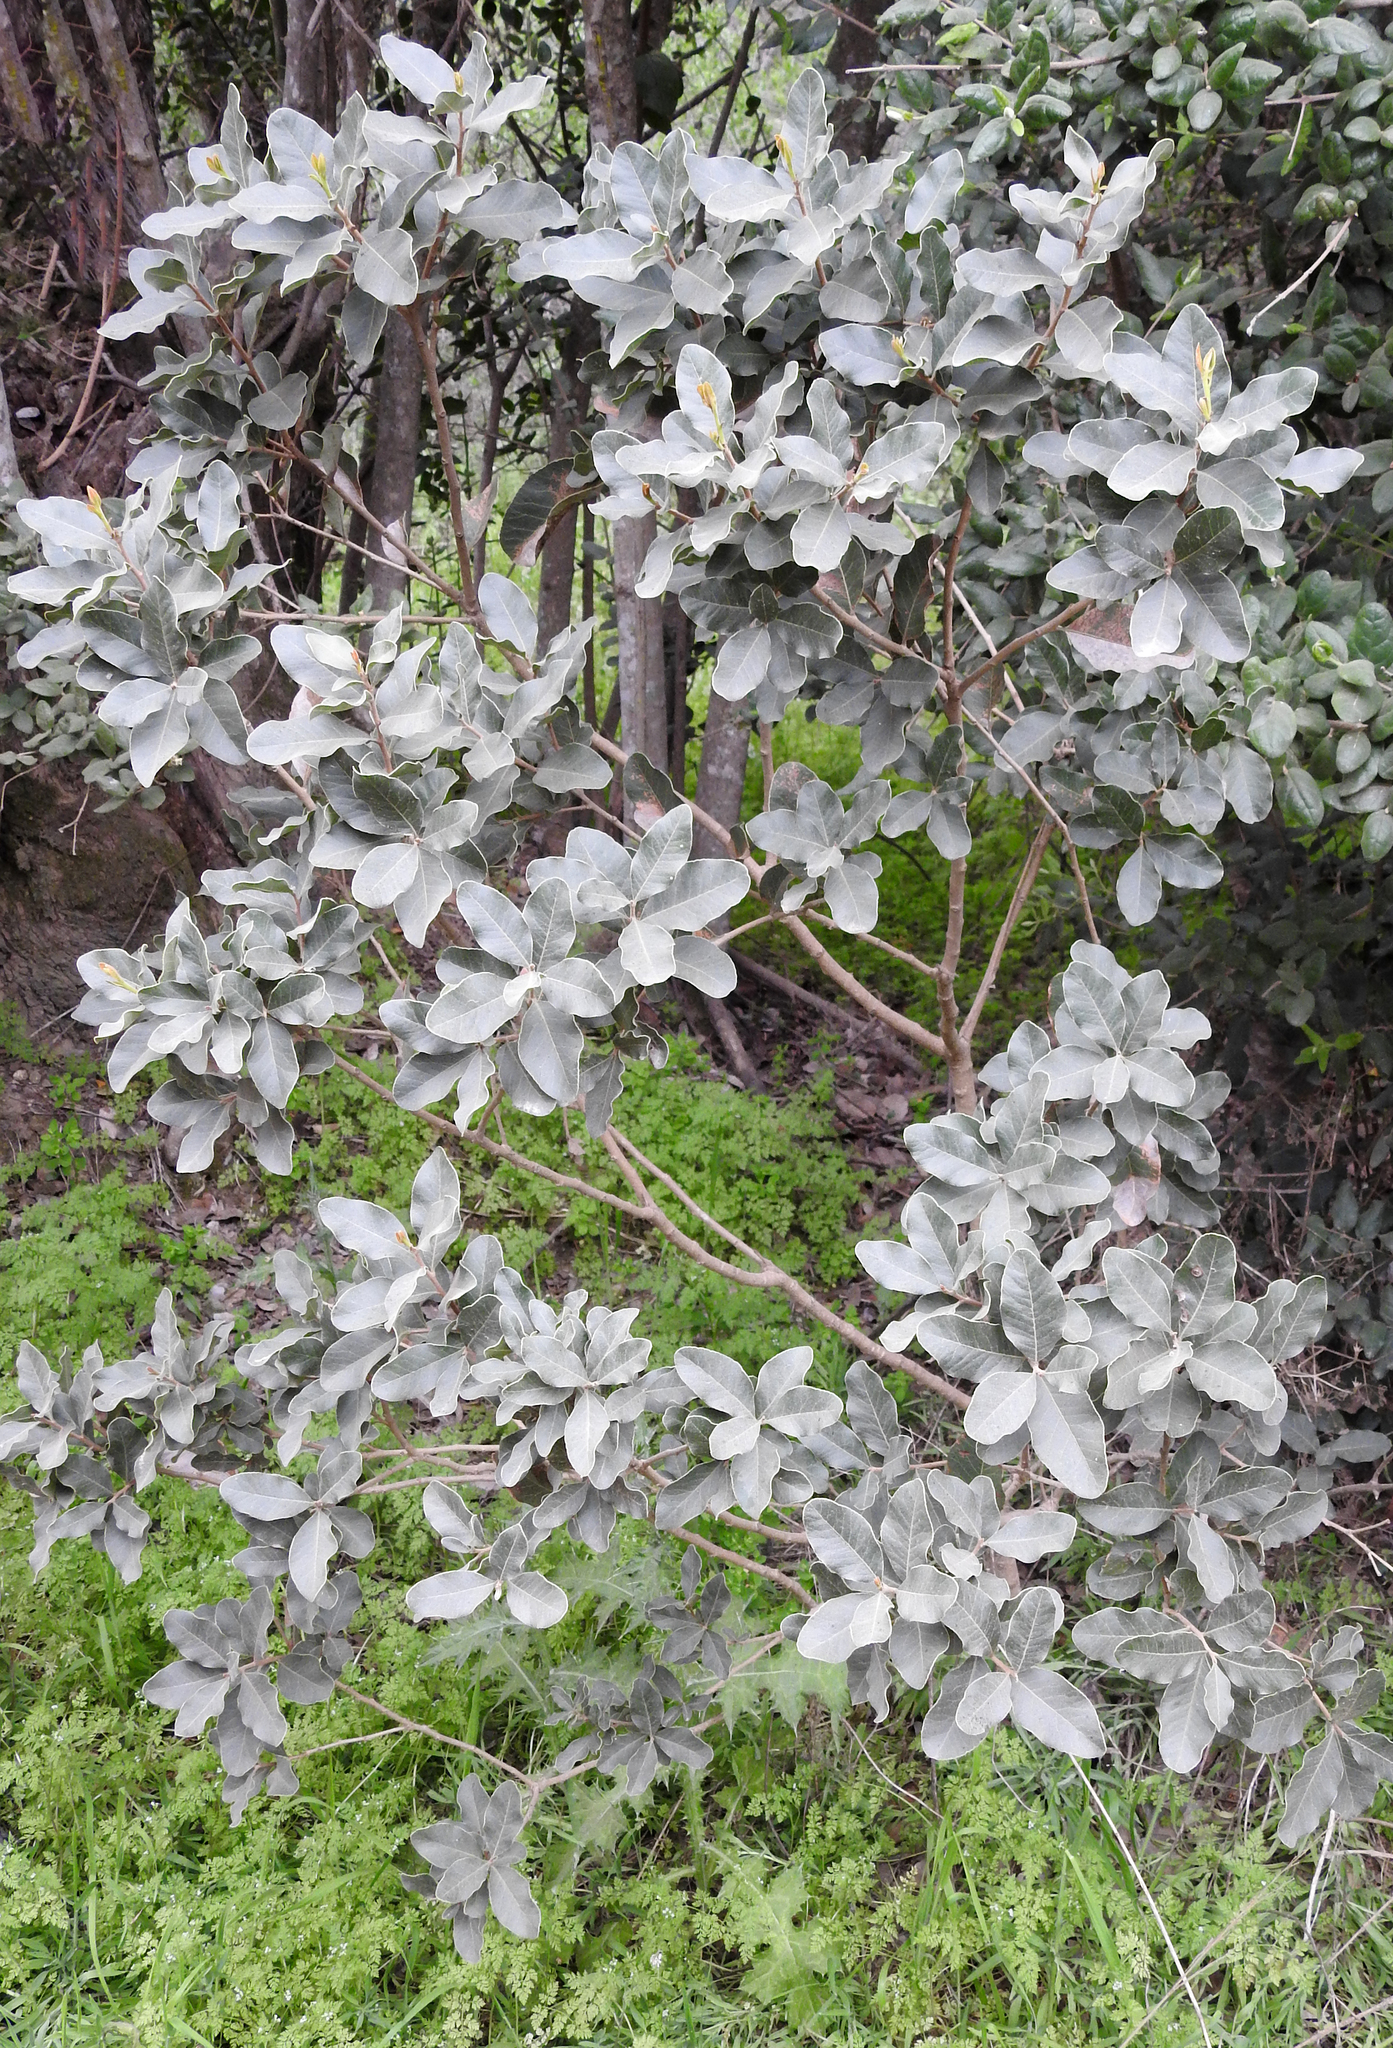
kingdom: Plantae
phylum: Tracheophyta
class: Magnoliopsida
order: Sapindales
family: Anacardiaceae
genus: Lithraea
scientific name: Lithraea caustica
